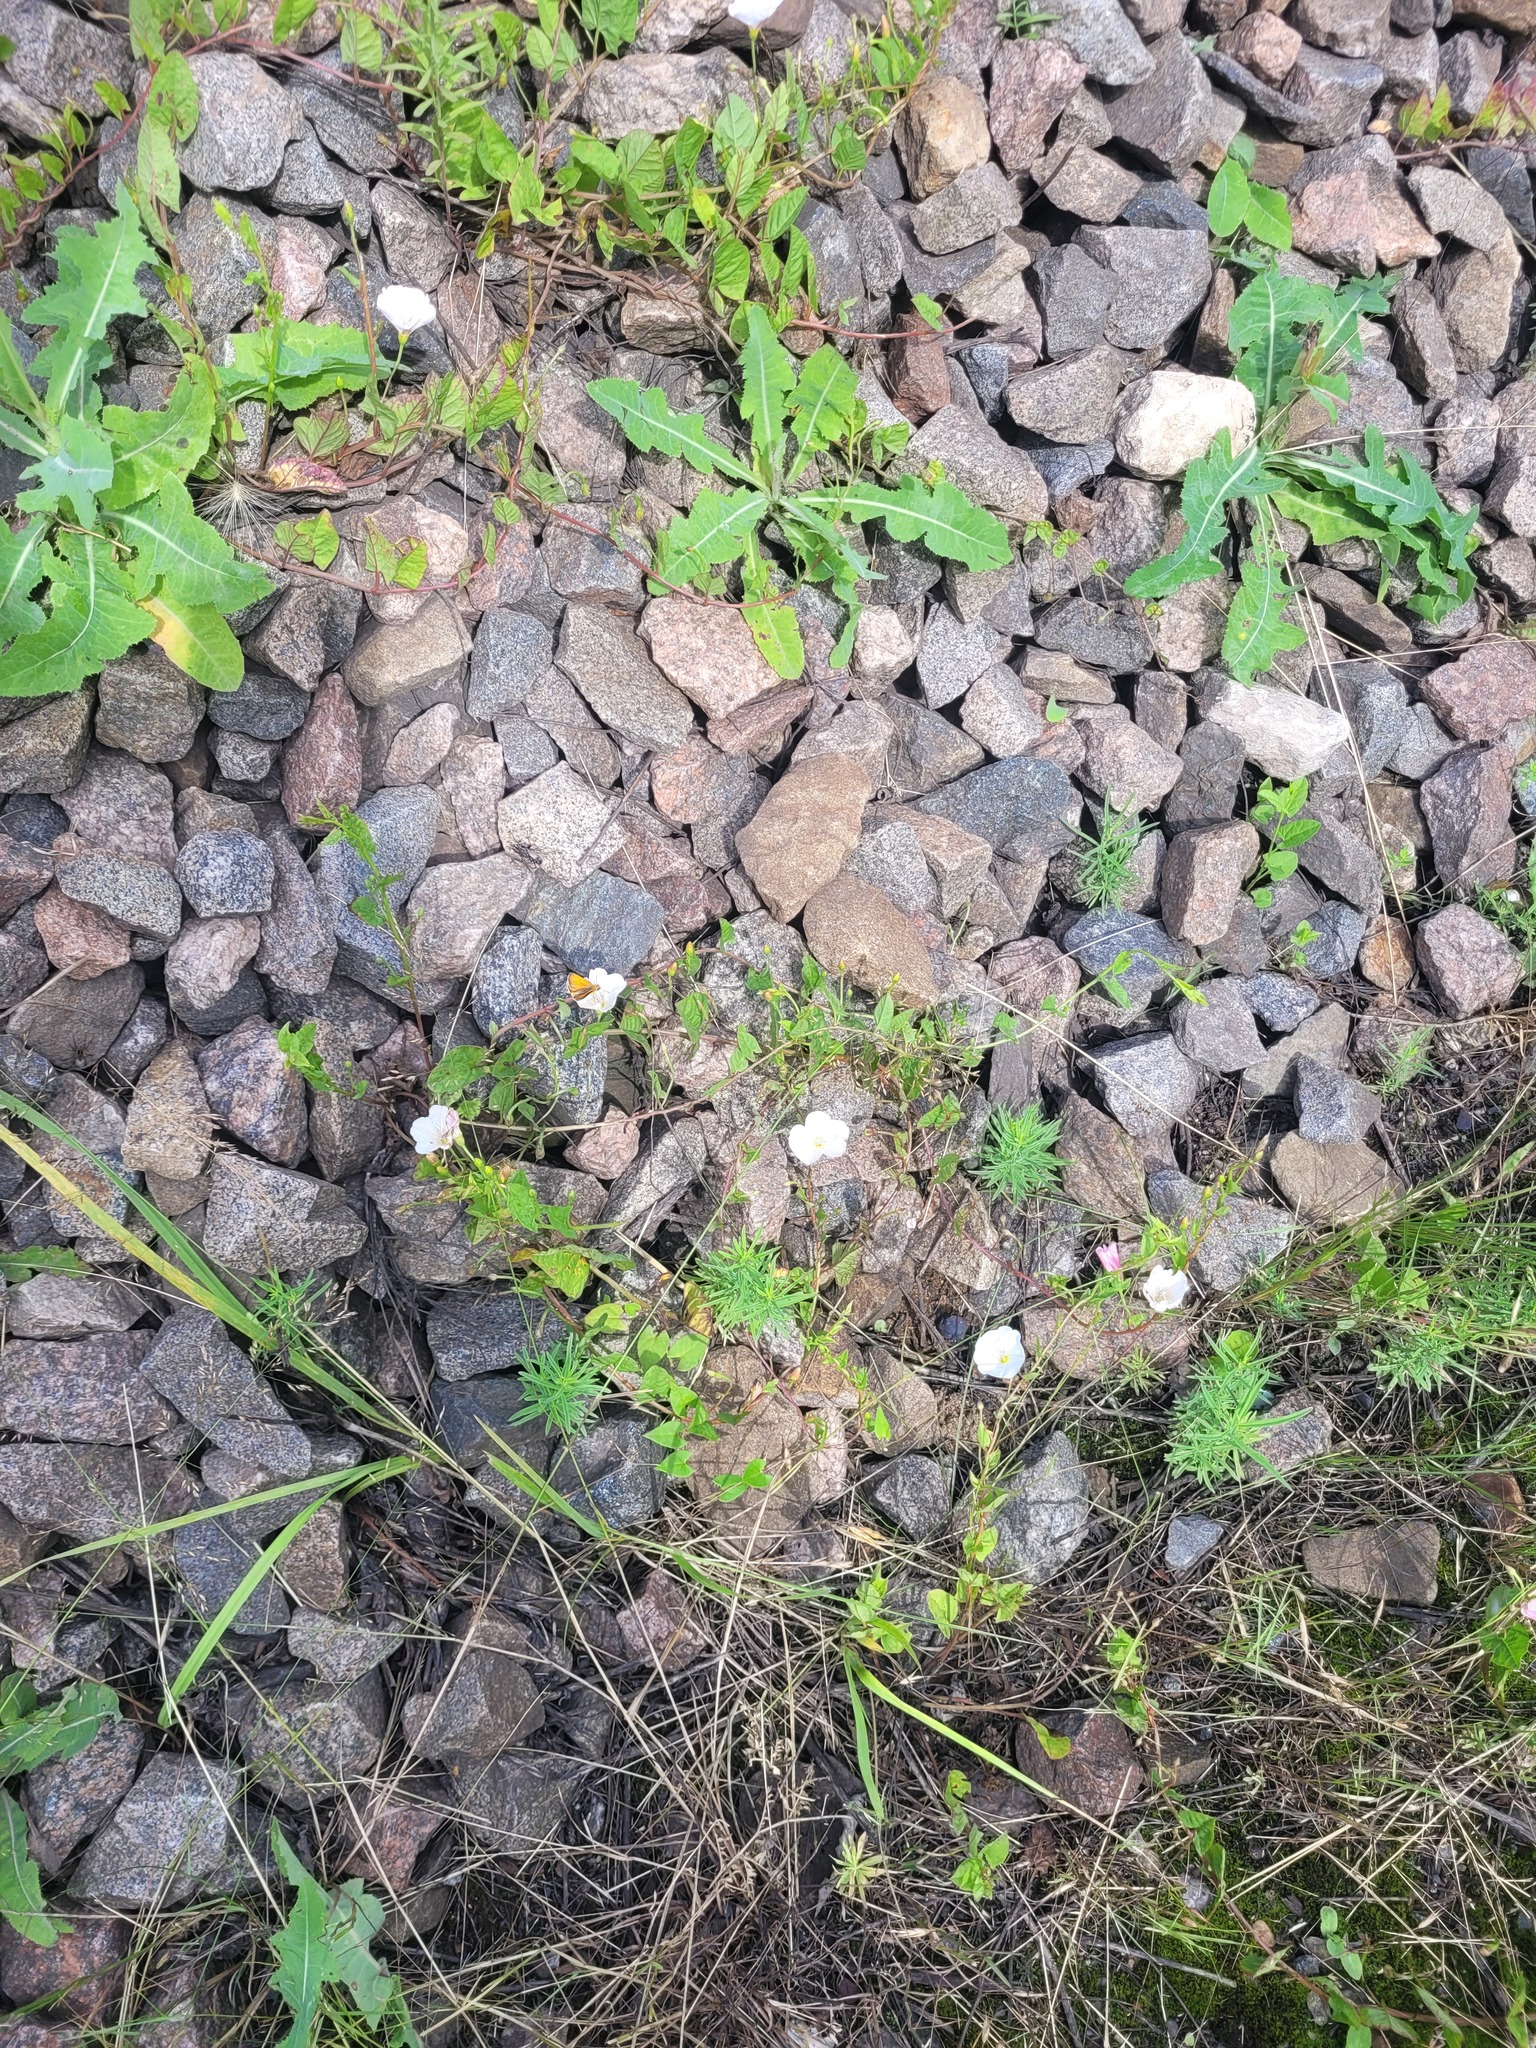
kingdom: Plantae
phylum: Tracheophyta
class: Magnoliopsida
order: Solanales
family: Convolvulaceae
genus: Convolvulus
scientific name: Convolvulus arvensis
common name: Field bindweed
